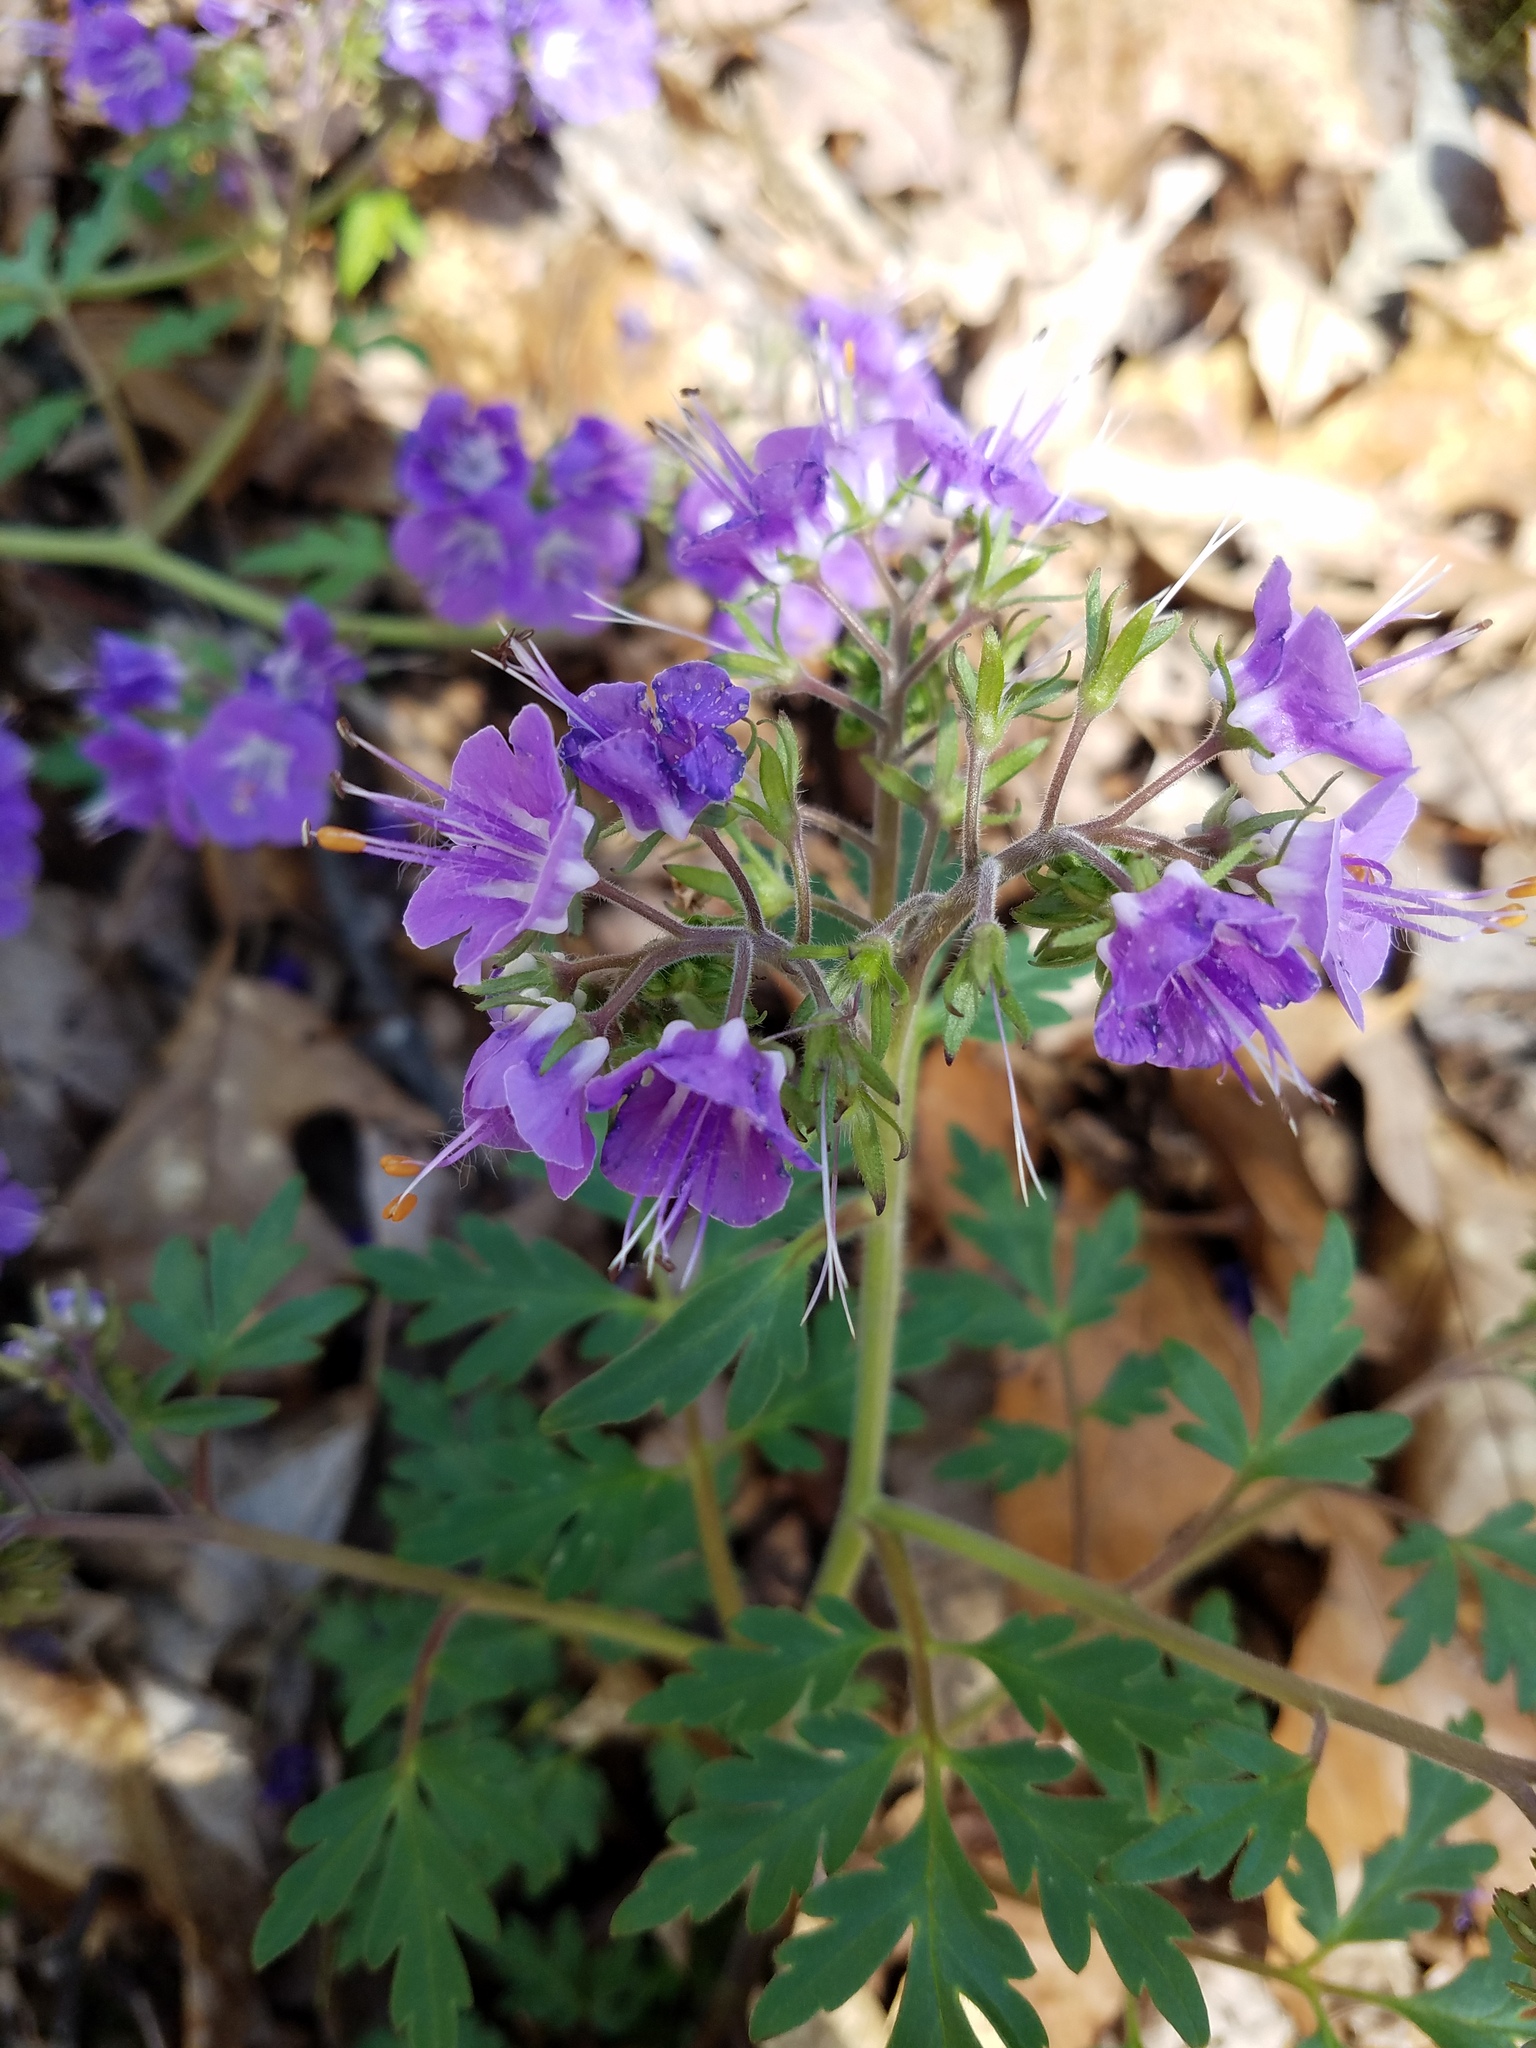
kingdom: Plantae
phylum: Tracheophyta
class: Magnoliopsida
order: Boraginales
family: Hydrophyllaceae
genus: Phacelia
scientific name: Phacelia bipinnatifida
